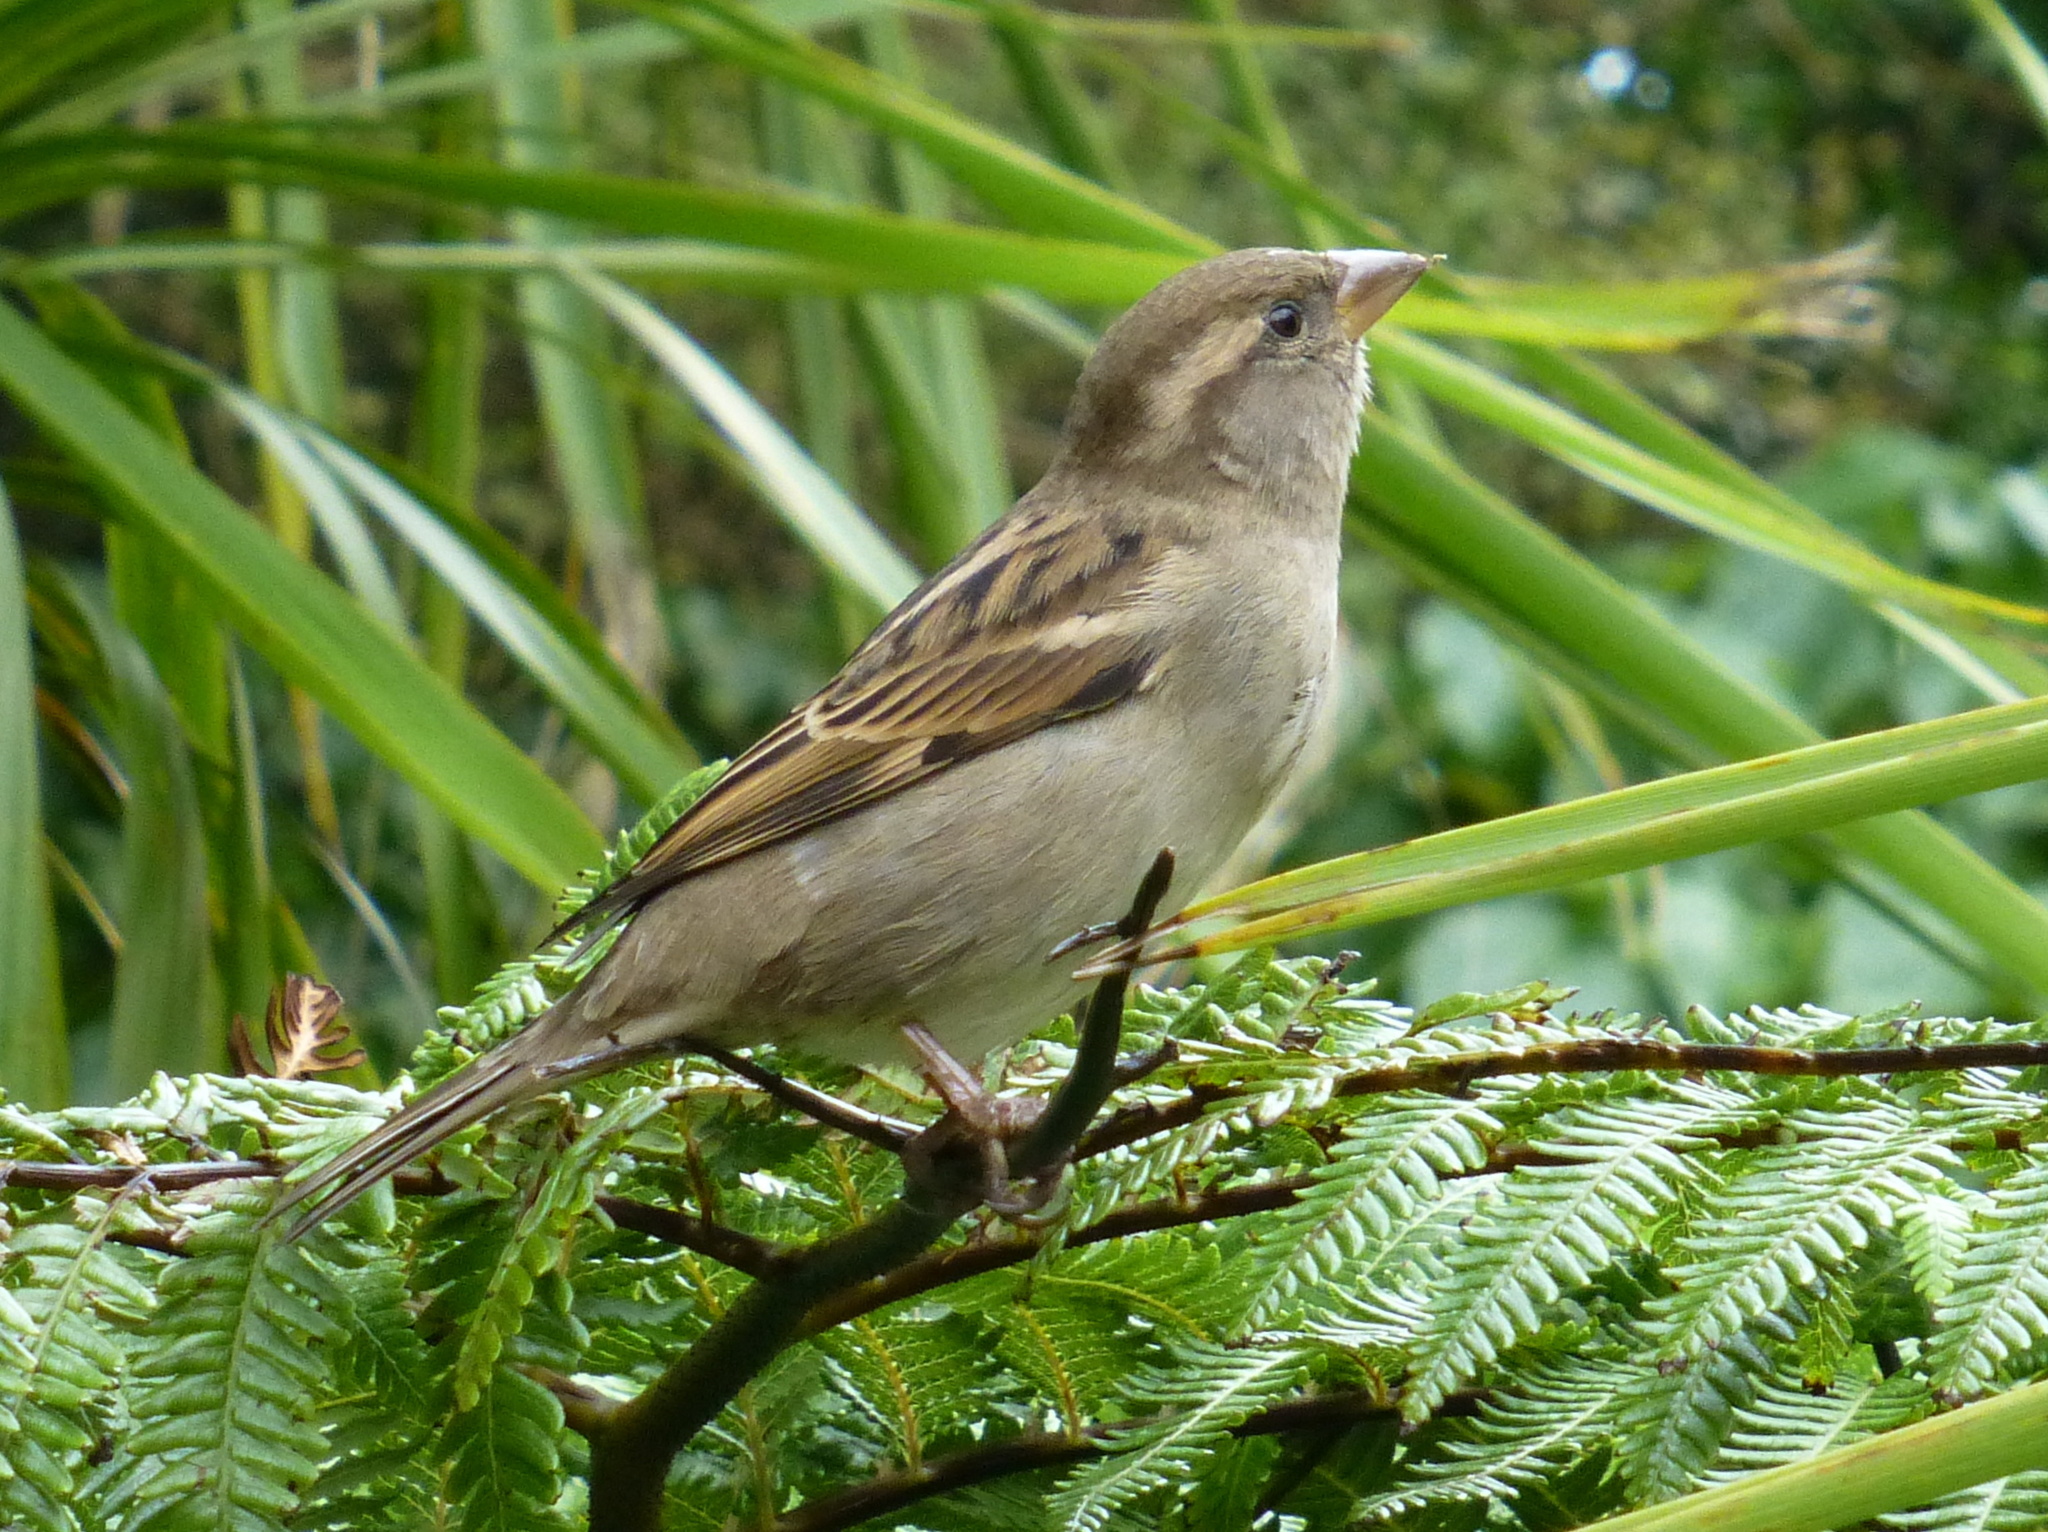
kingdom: Animalia
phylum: Chordata
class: Aves
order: Passeriformes
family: Passeridae
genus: Passer
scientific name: Passer domesticus
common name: House sparrow
